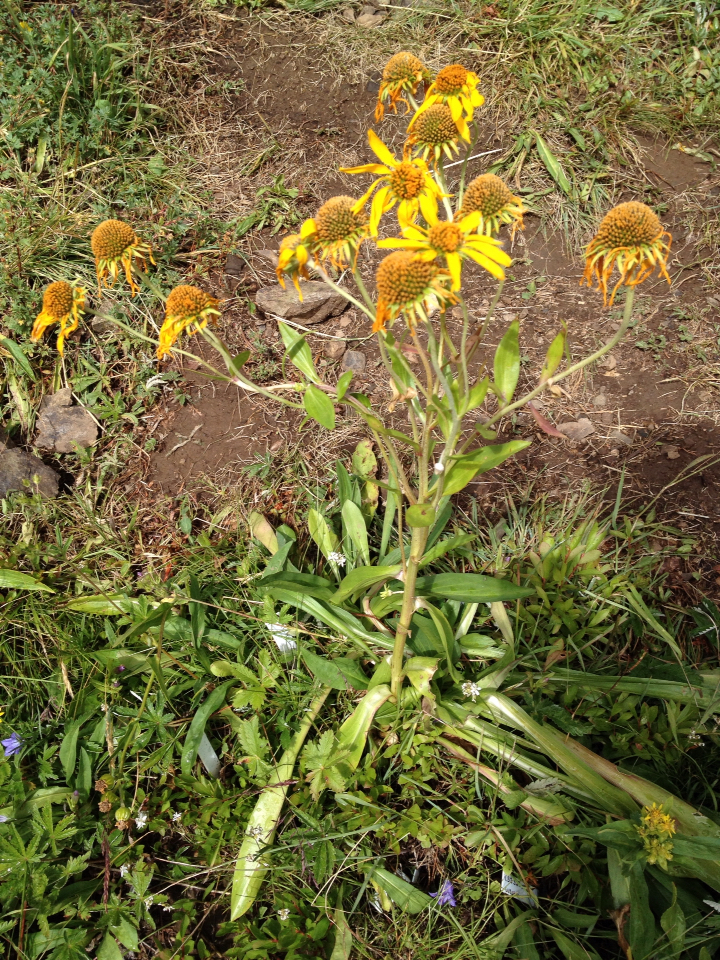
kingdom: Plantae
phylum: Tracheophyta
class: Magnoliopsida
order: Asterales
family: Asteraceae
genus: Hymenoxys
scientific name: Hymenoxys hoopesii
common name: Orange-sneezeweed
